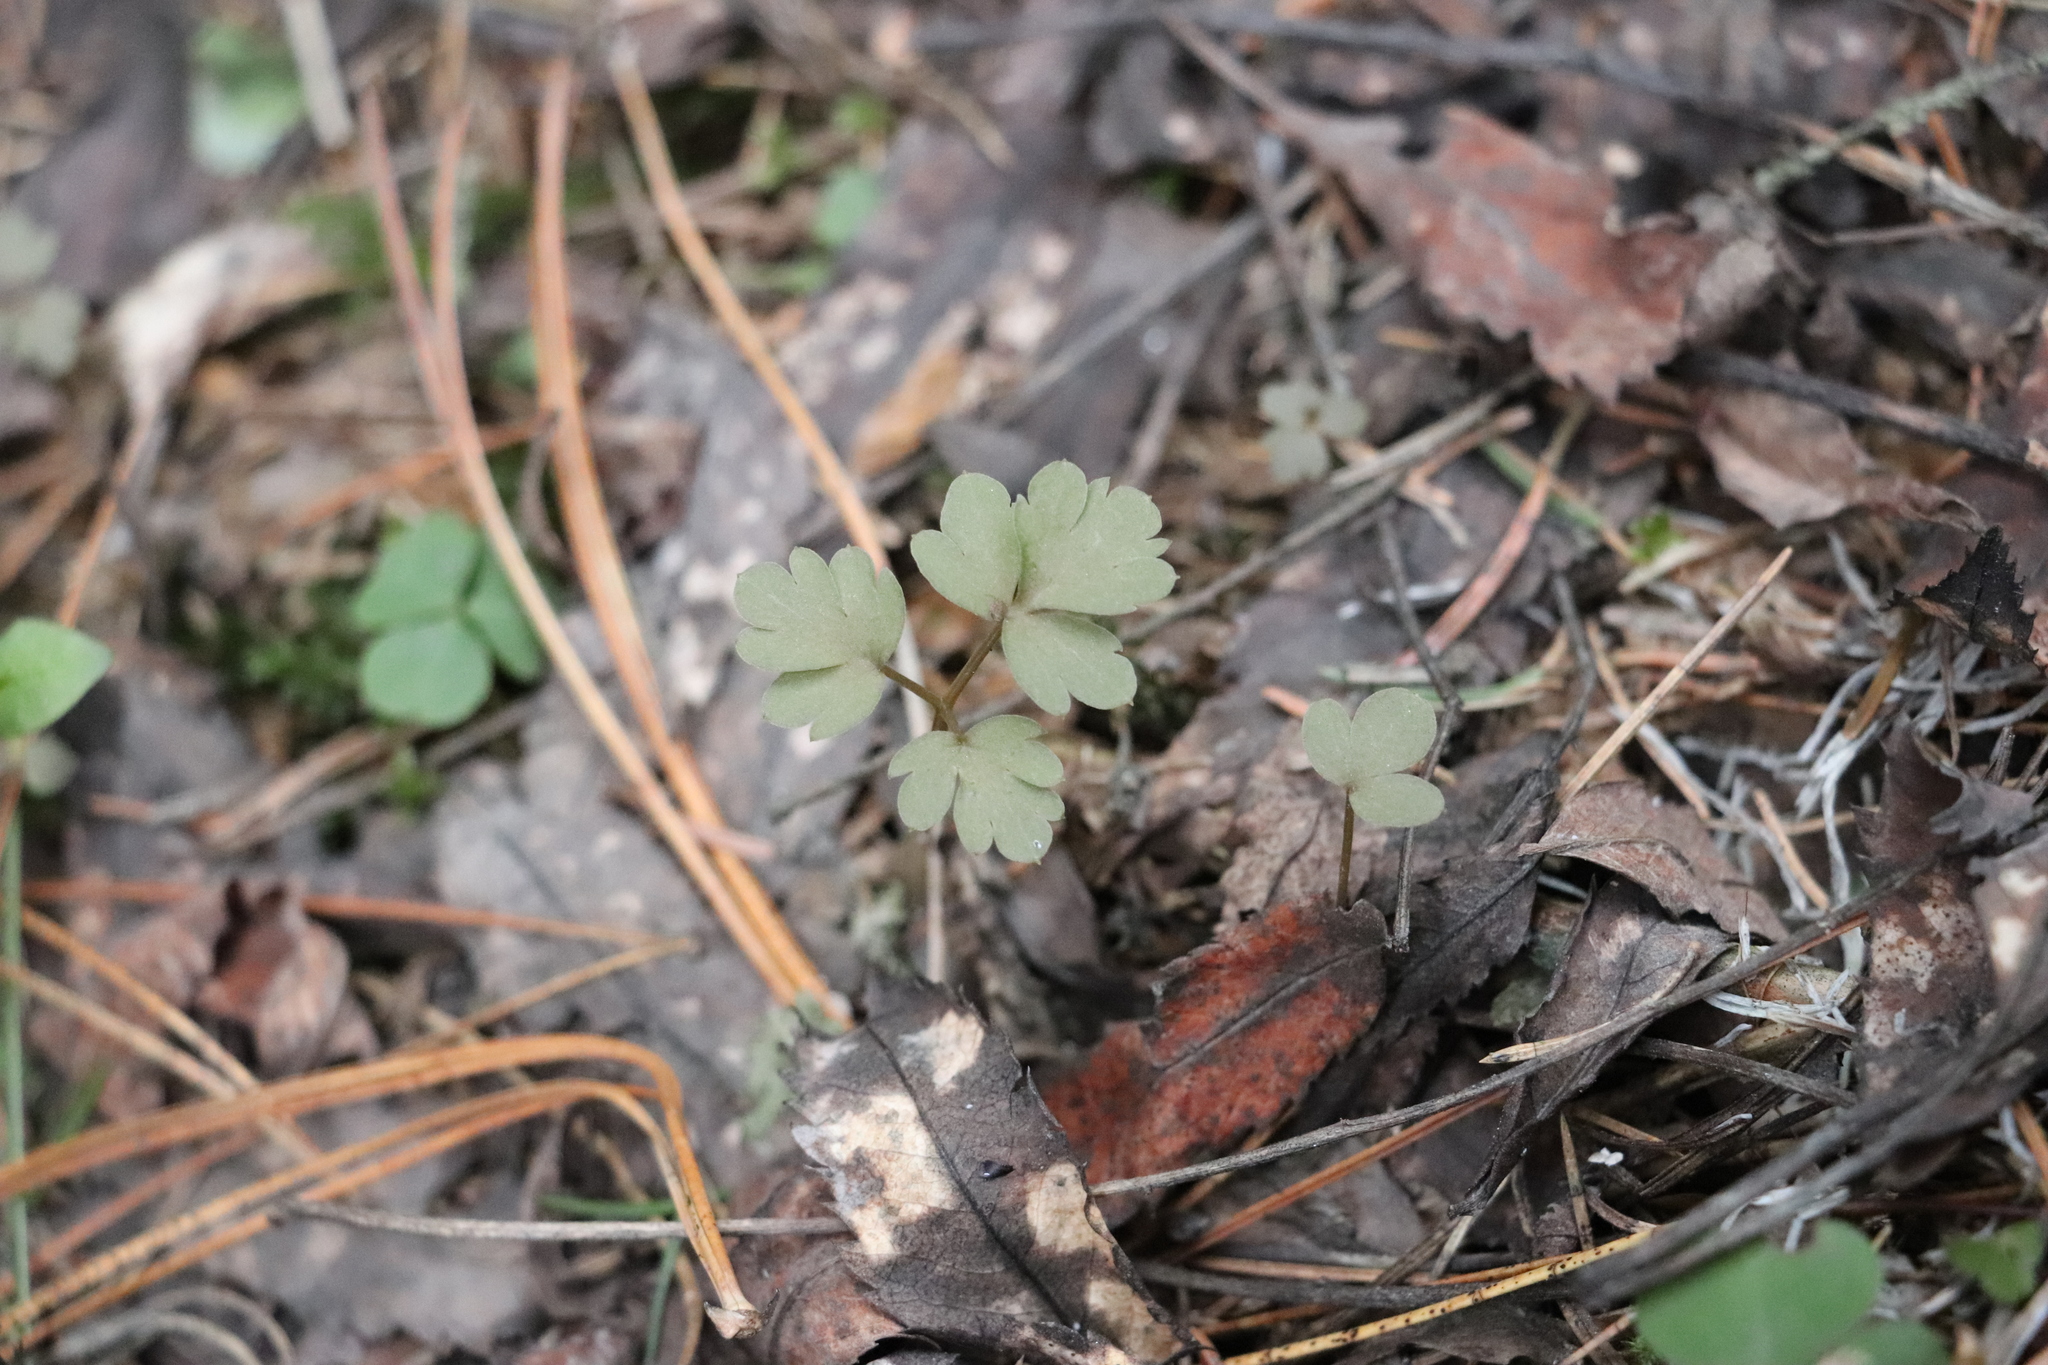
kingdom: Plantae
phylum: Tracheophyta
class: Magnoliopsida
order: Dipsacales
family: Viburnaceae
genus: Adoxa
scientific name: Adoxa moschatellina
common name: Moschatel
